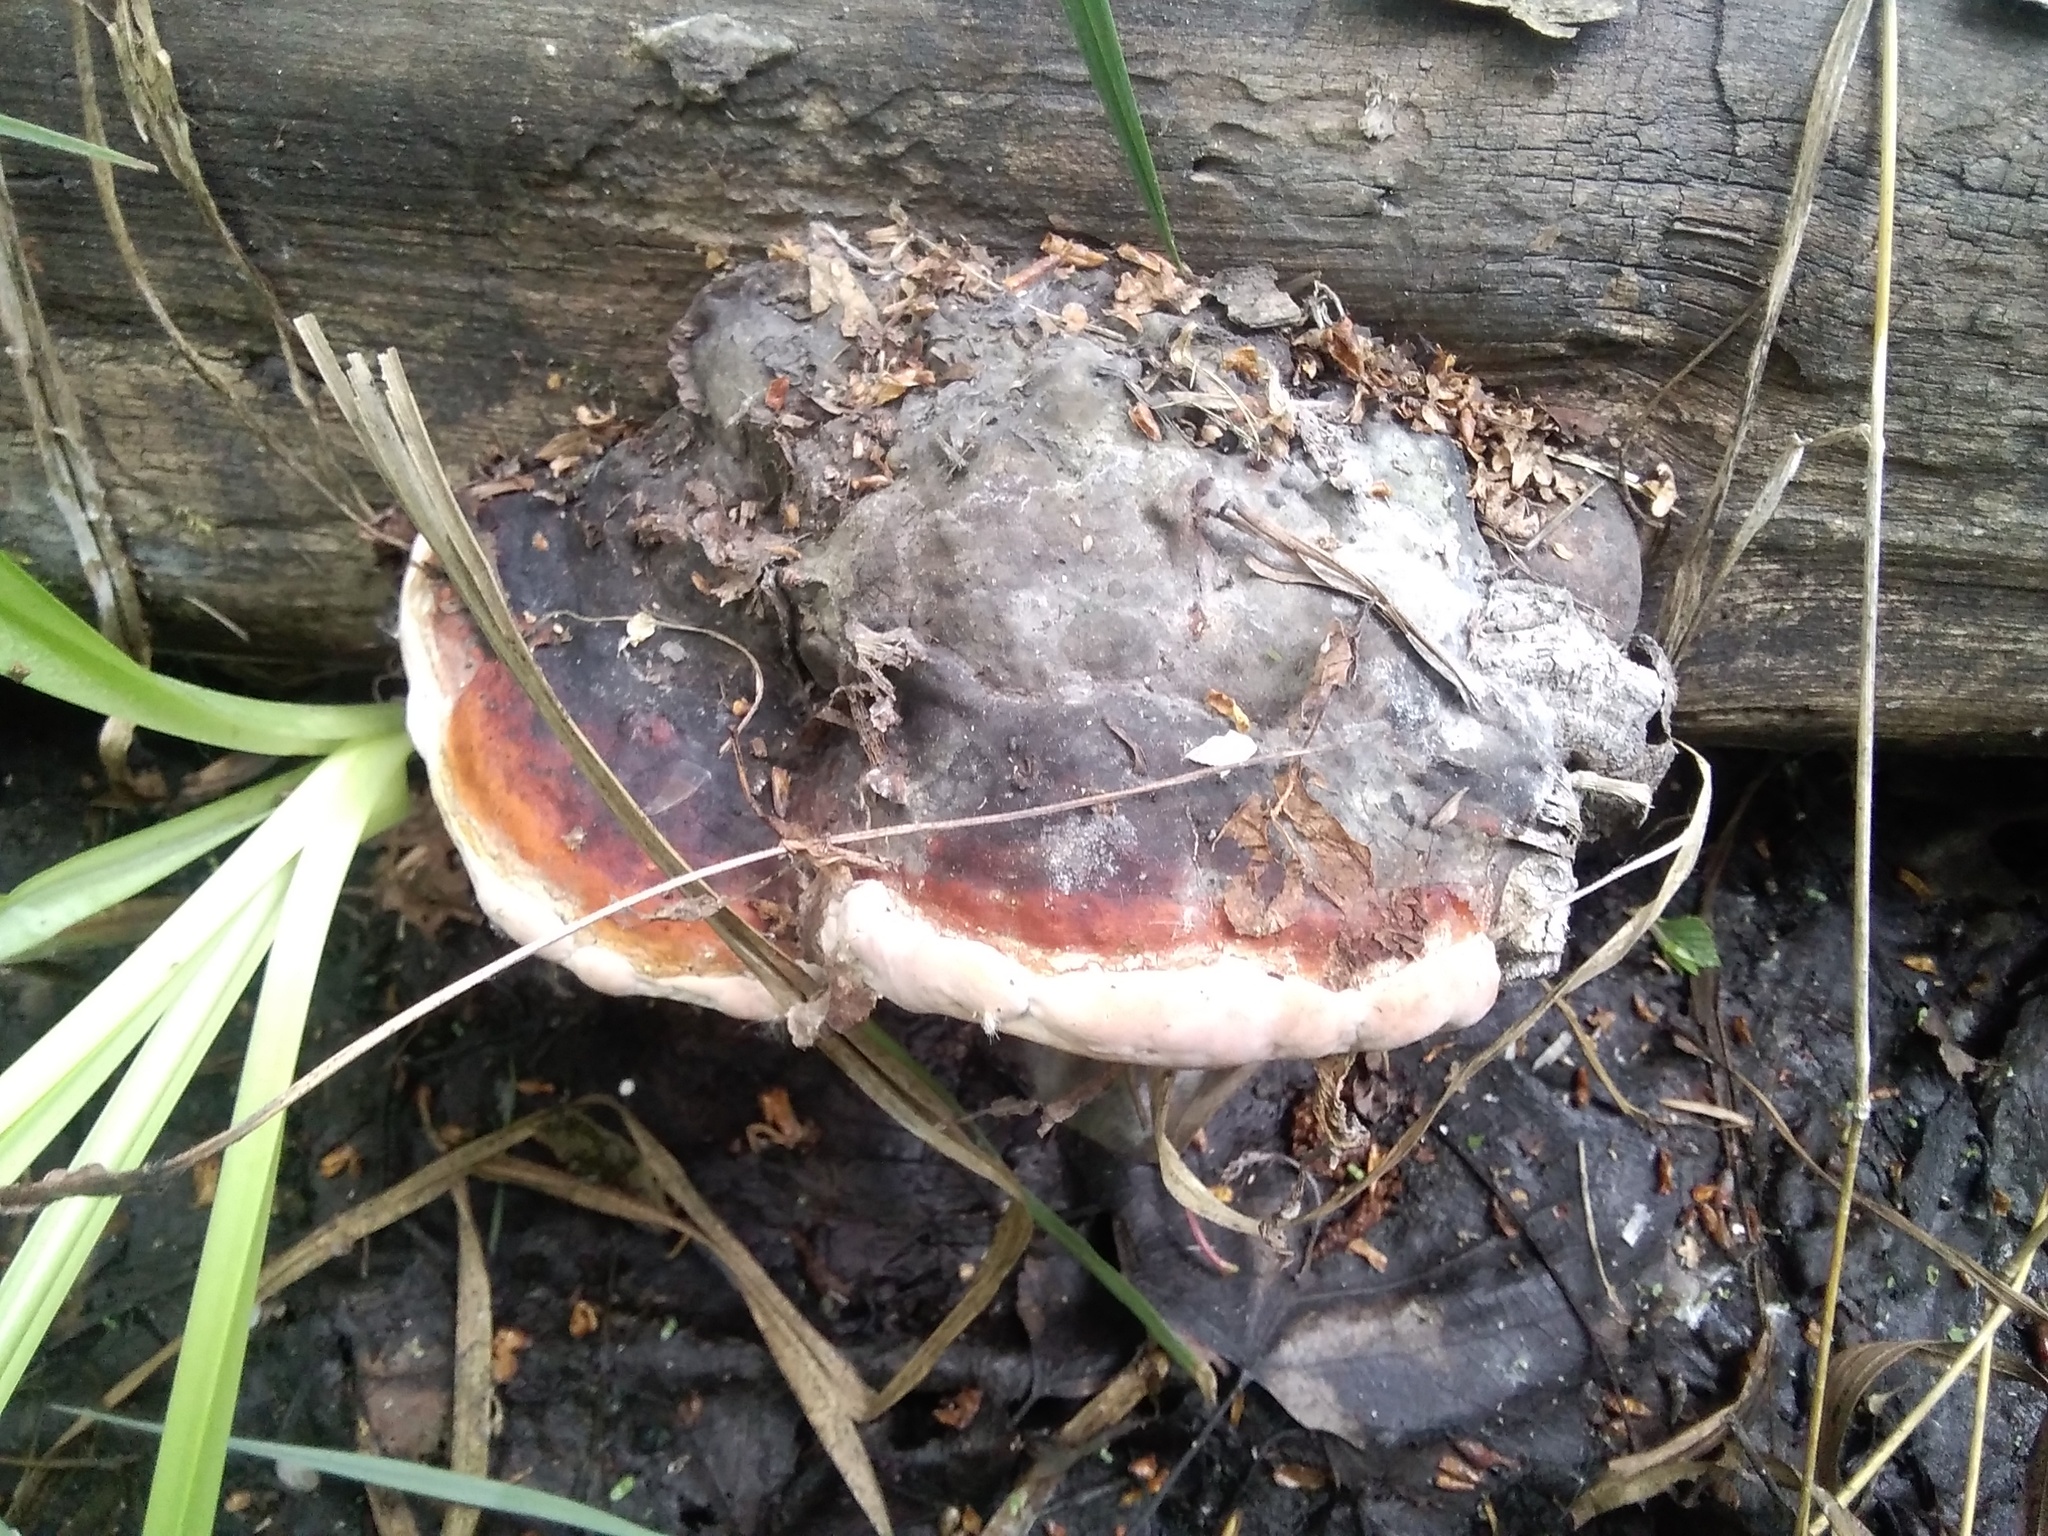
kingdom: Fungi
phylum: Basidiomycota
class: Agaricomycetes
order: Polyporales
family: Fomitopsidaceae
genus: Fomitopsis
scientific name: Fomitopsis pinicola
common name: Red-belted bracket
